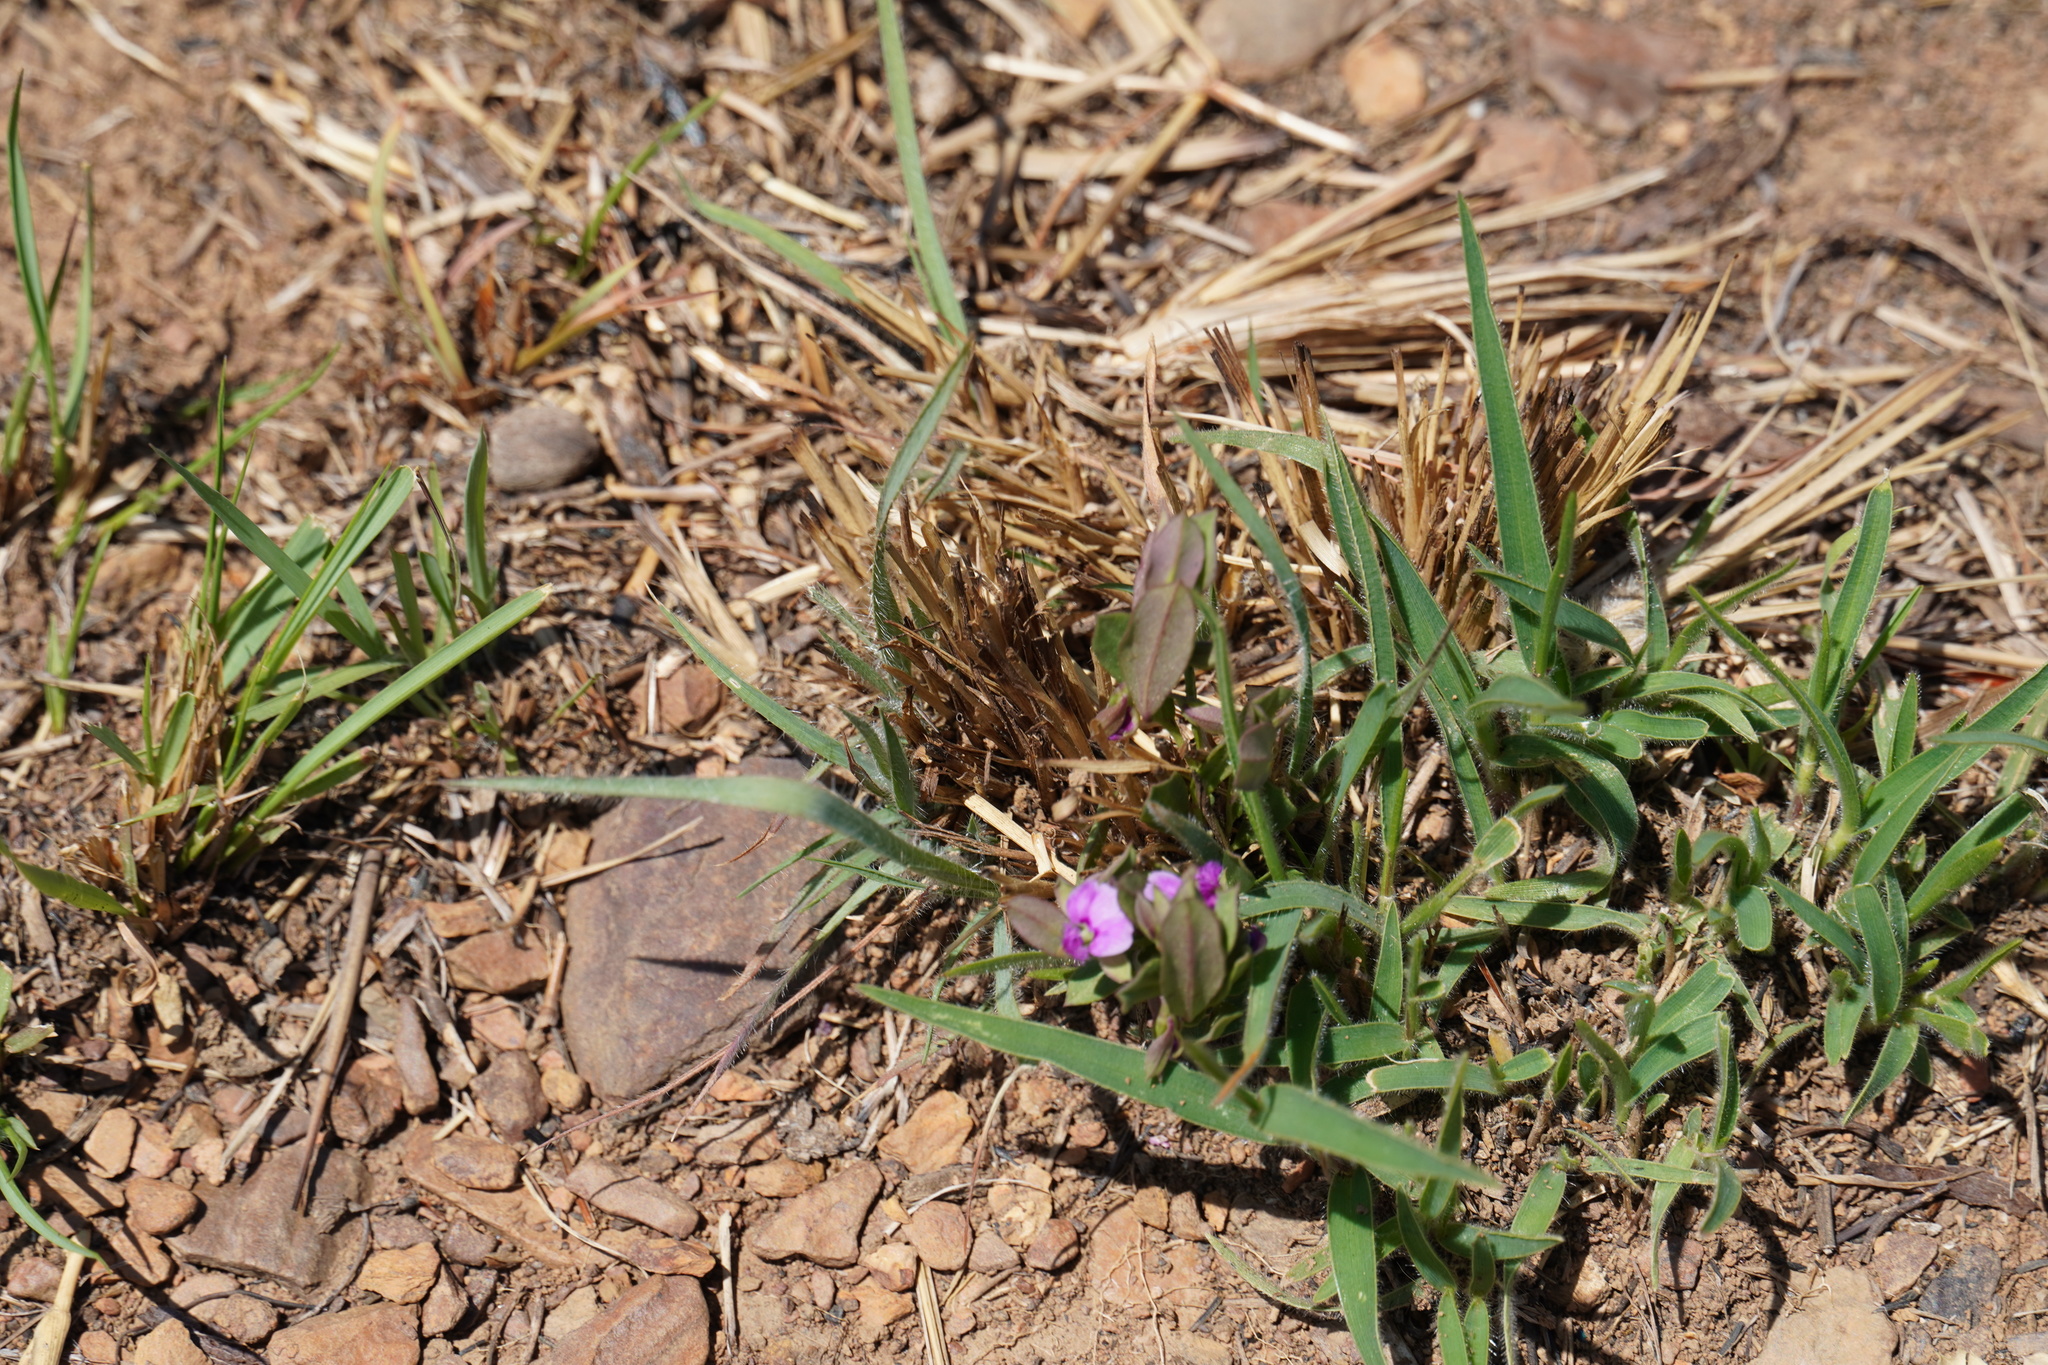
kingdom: Plantae
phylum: Tracheophyta
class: Magnoliopsida
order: Fabales
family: Polygalaceae
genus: Polygala
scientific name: Polygala amatymbica
